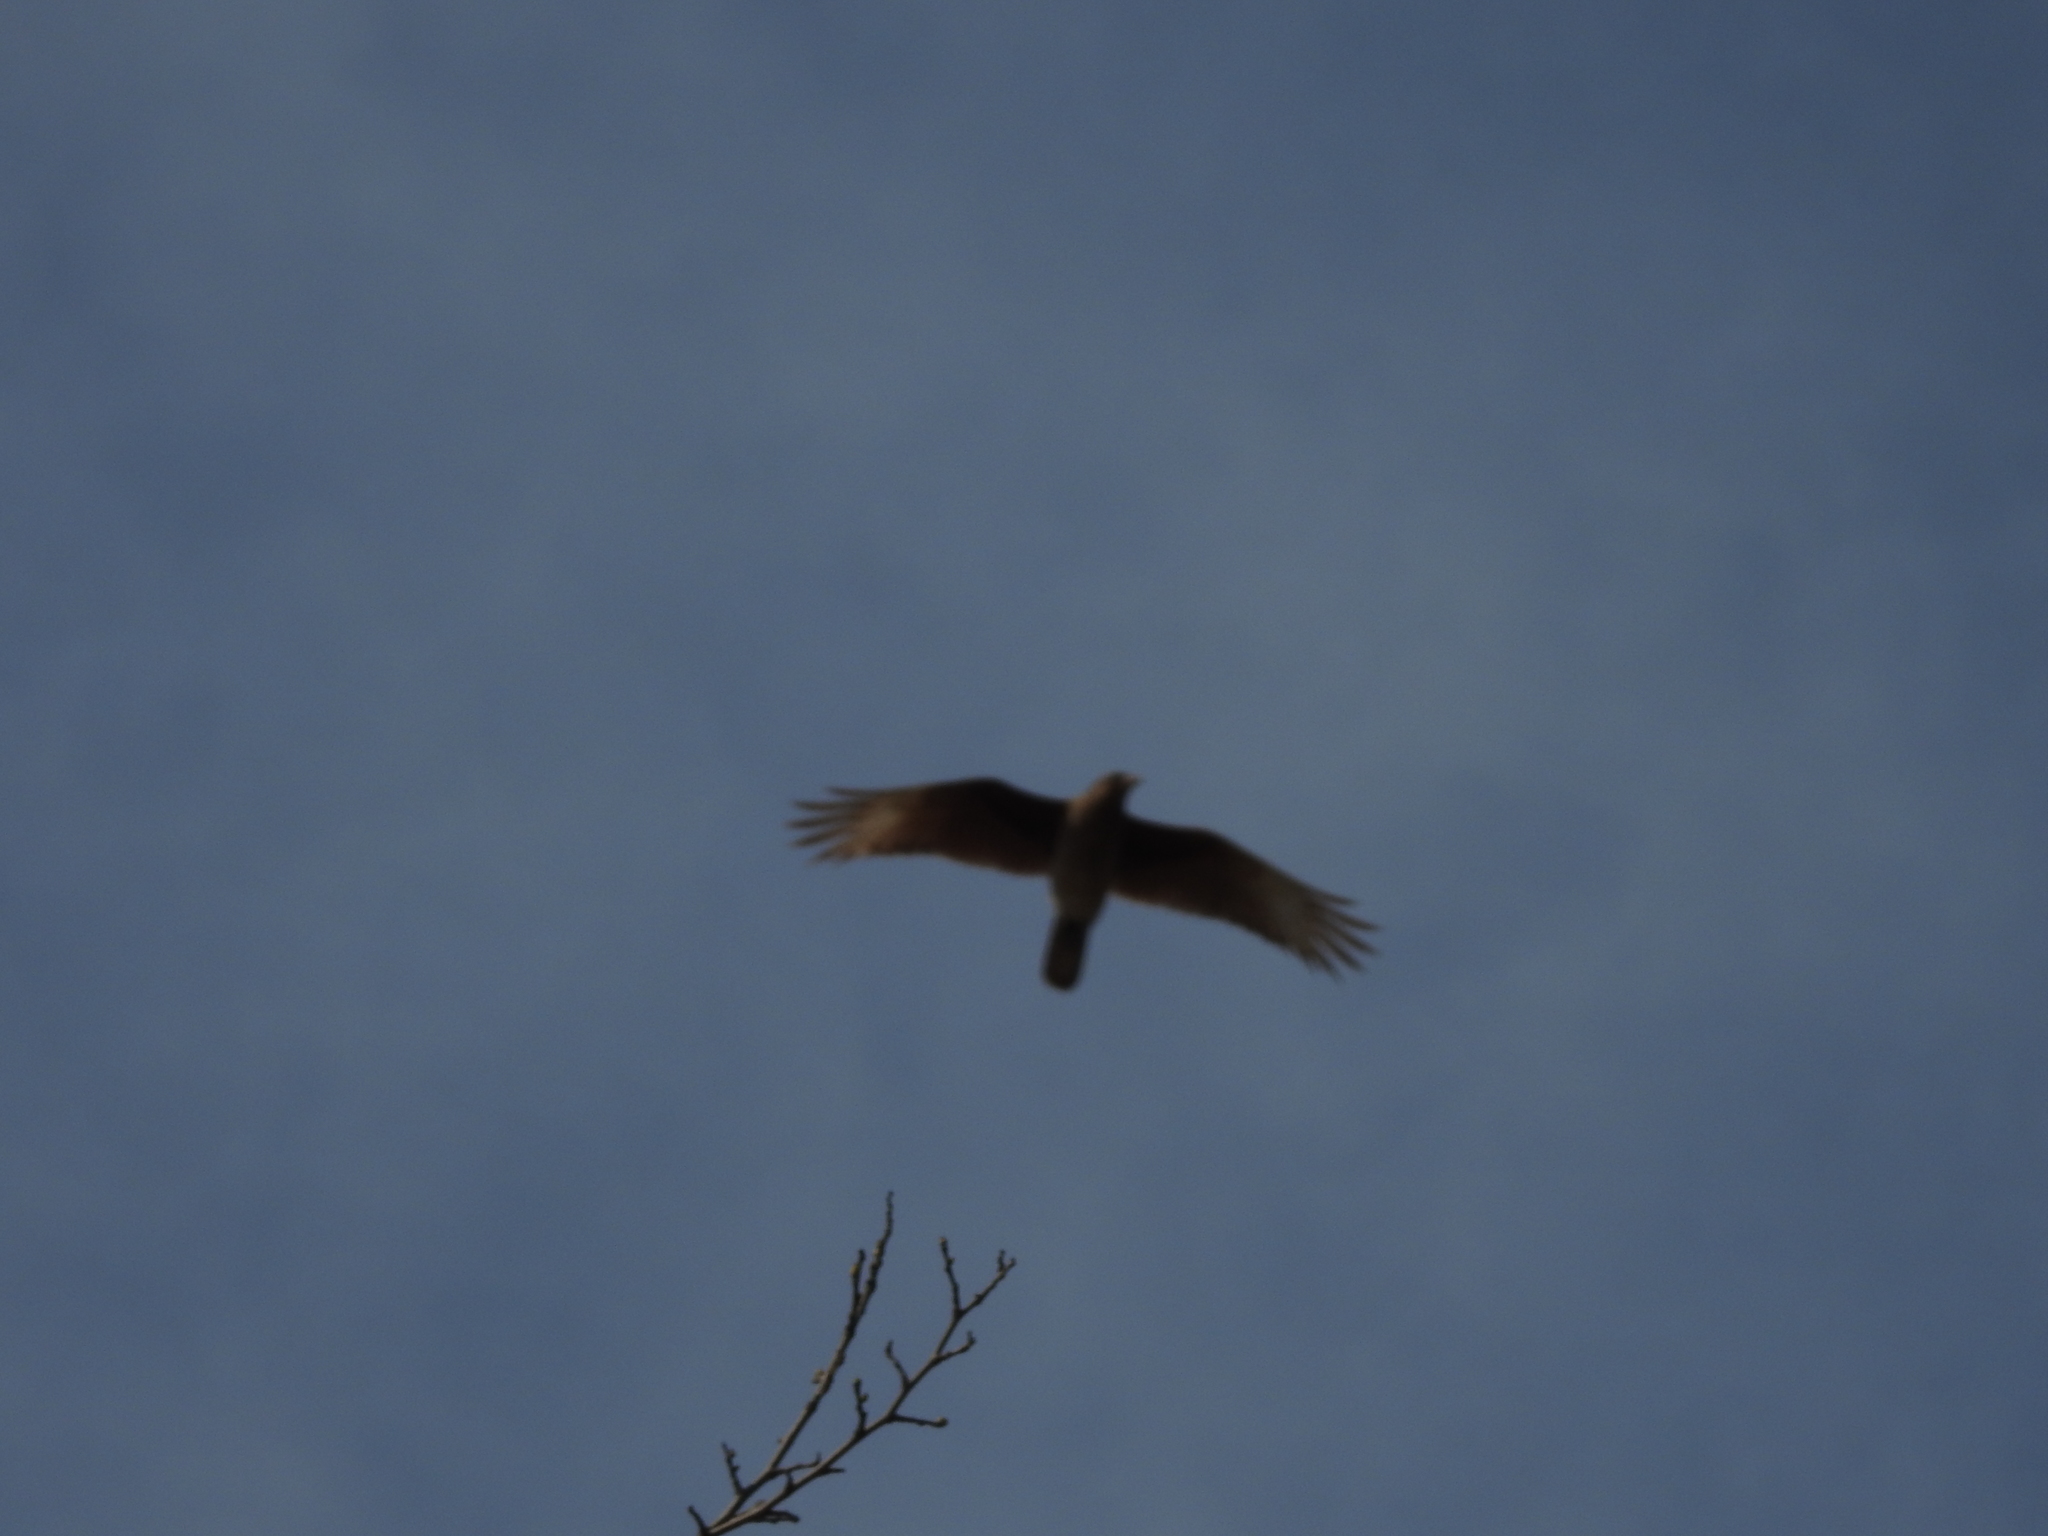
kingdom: Animalia
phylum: Chordata
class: Aves
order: Falconiformes
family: Falconidae
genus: Daptrius
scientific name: Daptrius
